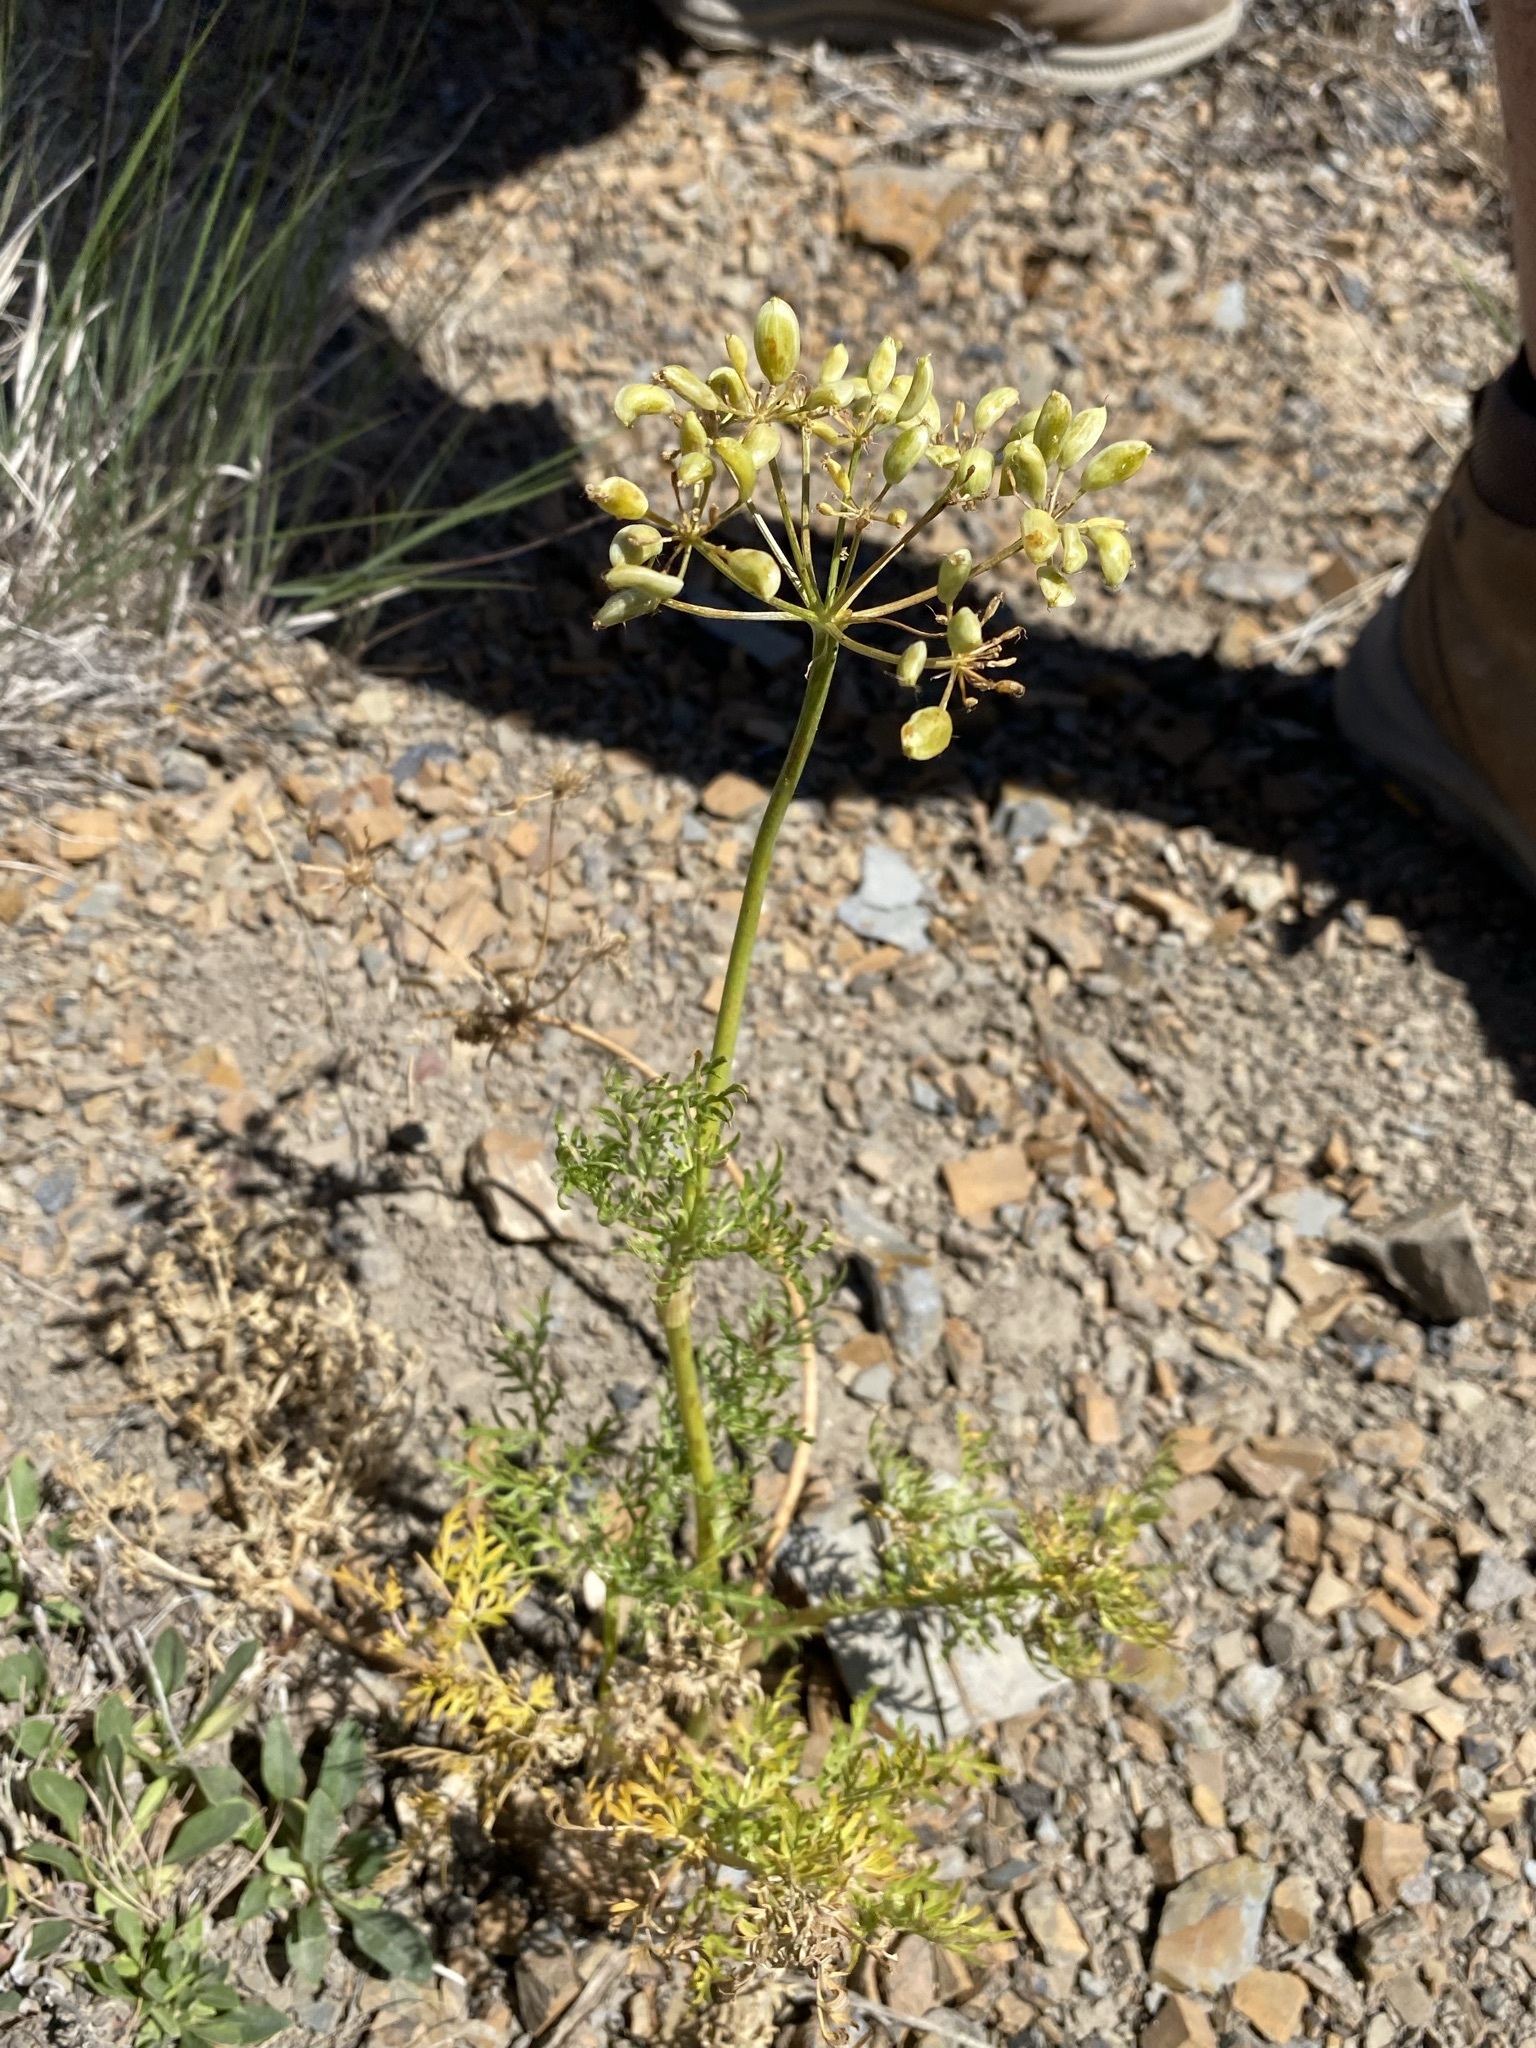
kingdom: Plantae
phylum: Tracheophyta
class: Magnoliopsida
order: Apiales
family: Apiaceae
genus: Lomatium
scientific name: Lomatium multifidum
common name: Carrot-leaved biscuitroot
